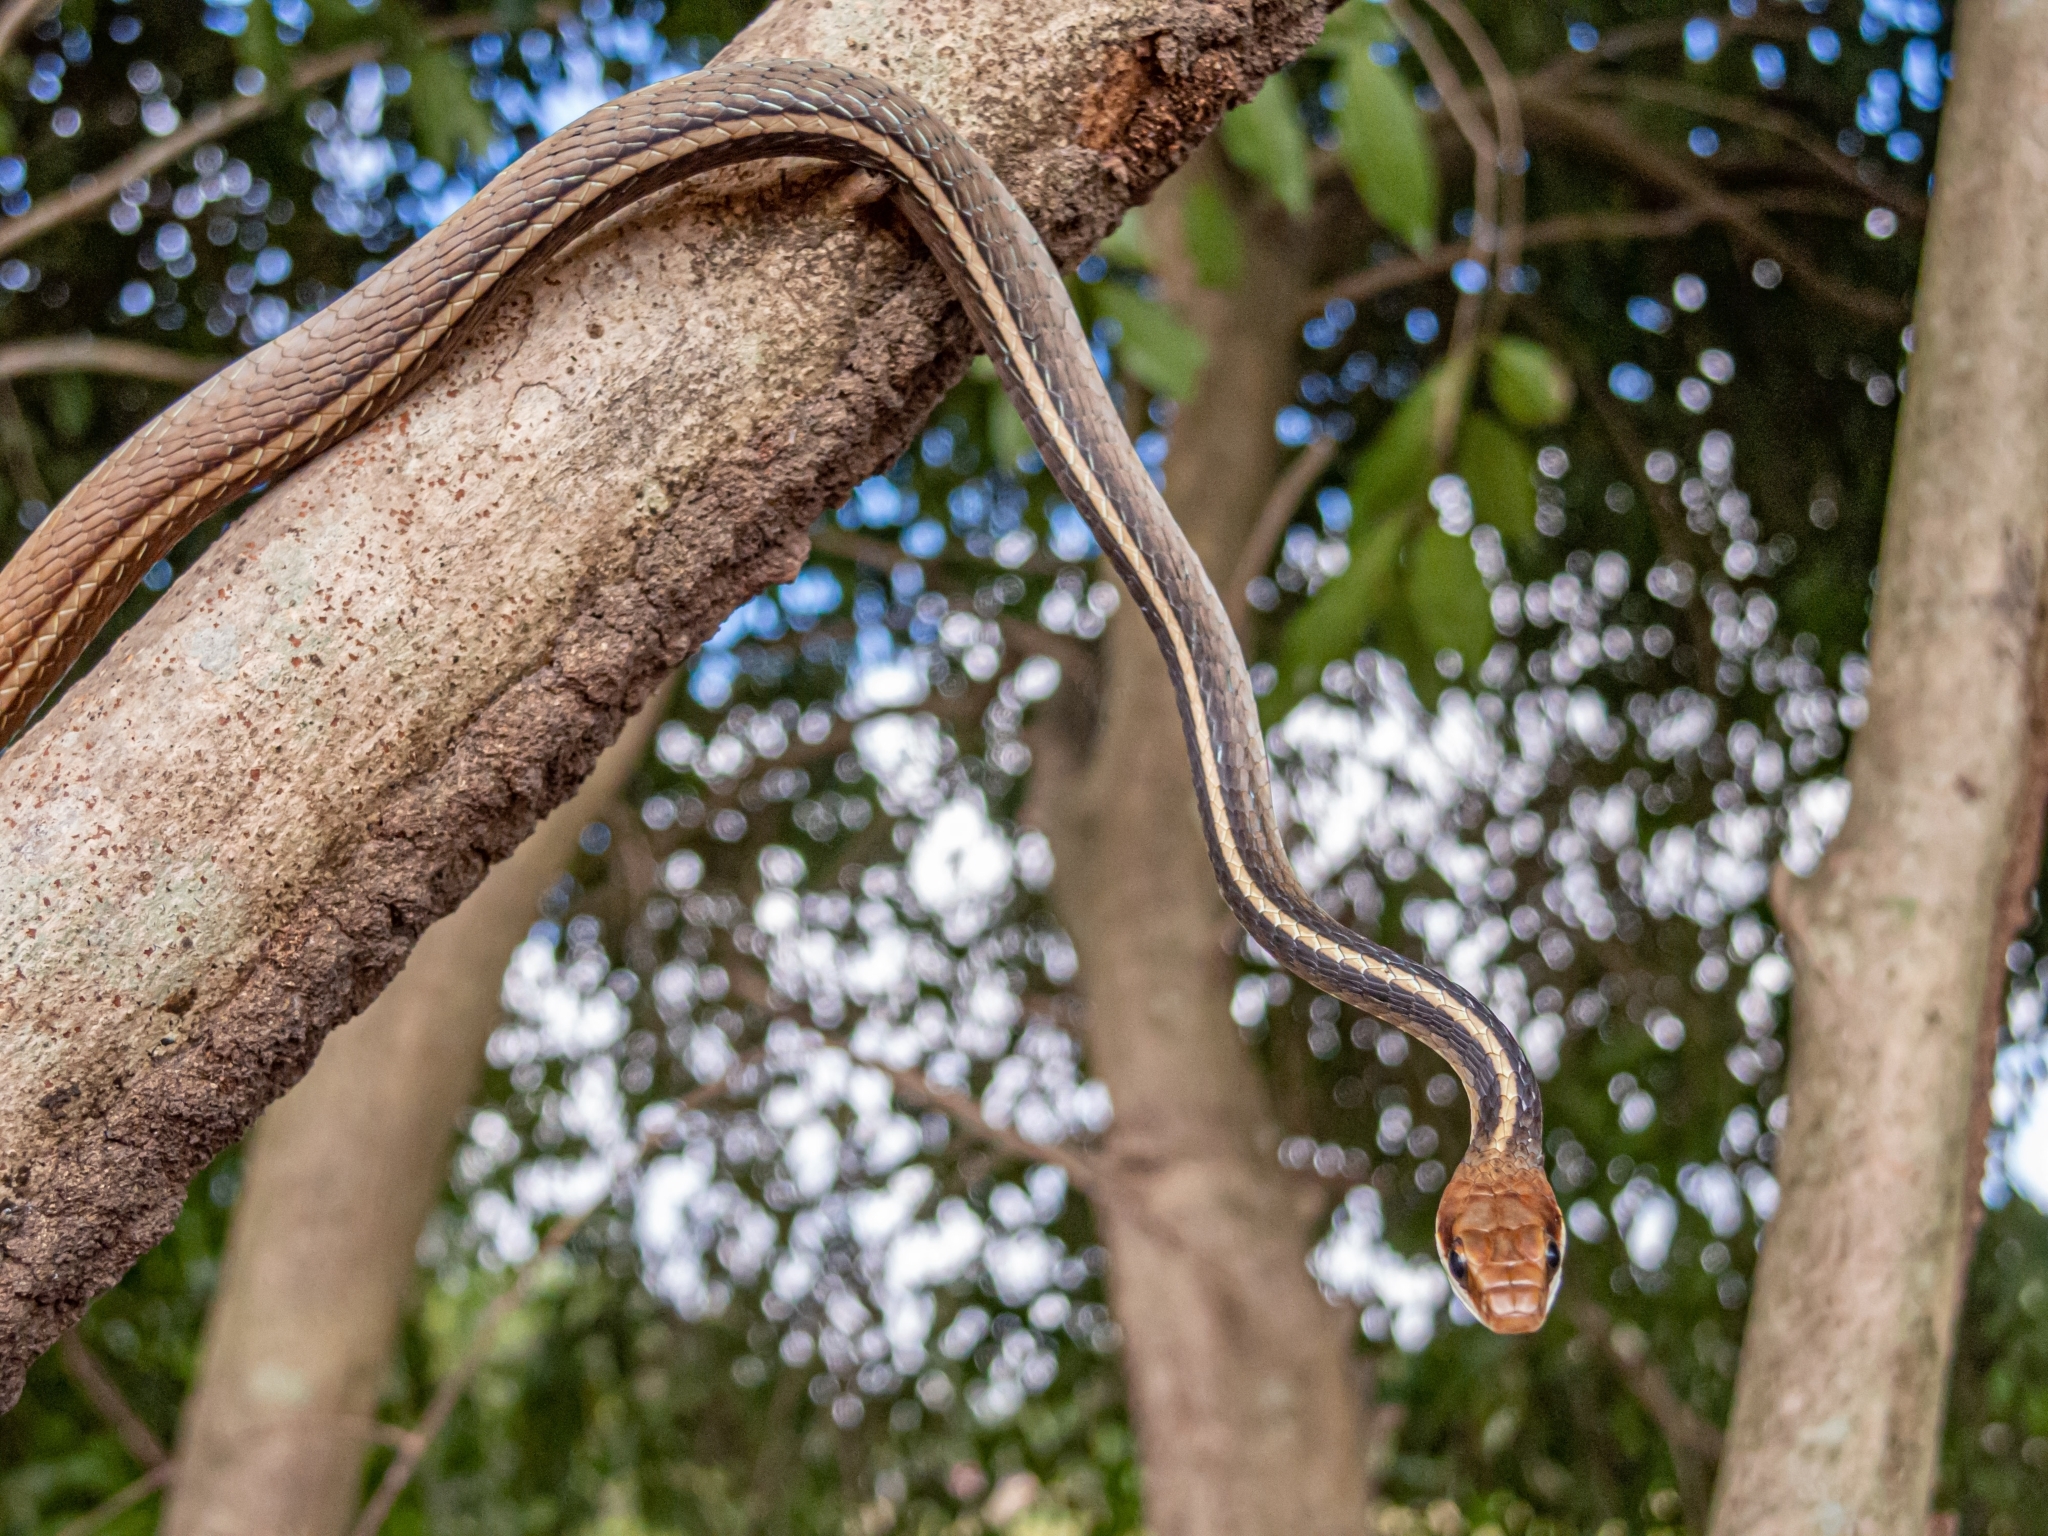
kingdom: Animalia
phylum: Chordata
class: Squamata
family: Colubridae
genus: Chironius
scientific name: Chironius flavolineatus
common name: Boettger's sipo
